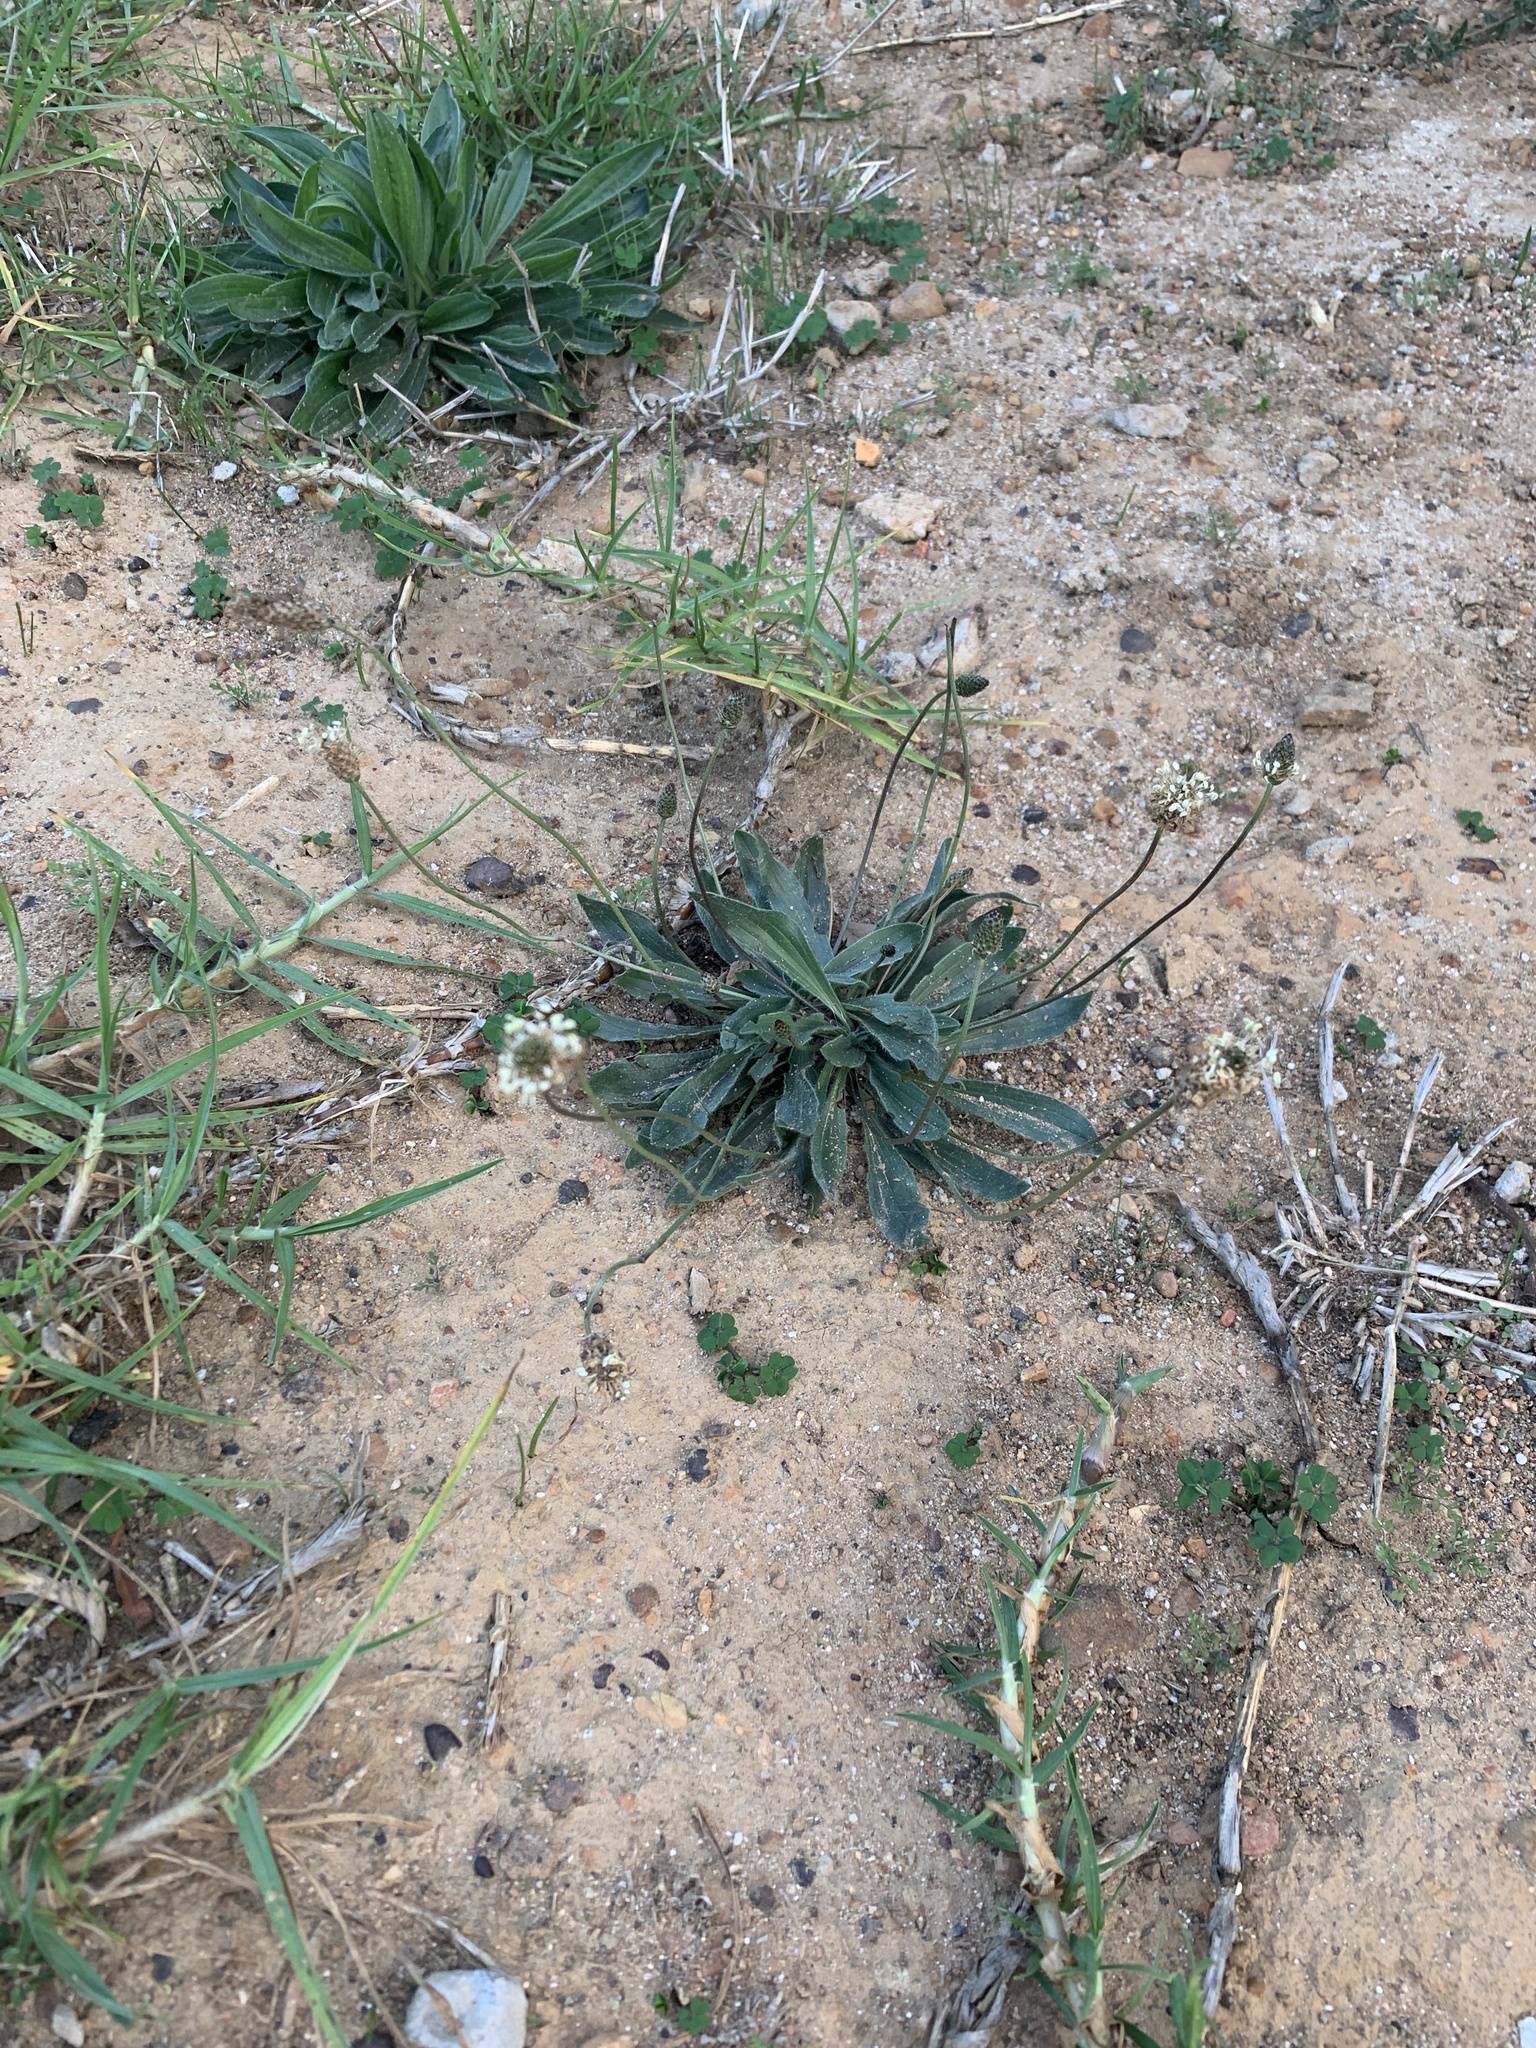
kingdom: Plantae
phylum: Tracheophyta
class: Magnoliopsida
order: Lamiales
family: Plantaginaceae
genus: Plantago
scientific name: Plantago lanceolata
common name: Ribwort plantain
